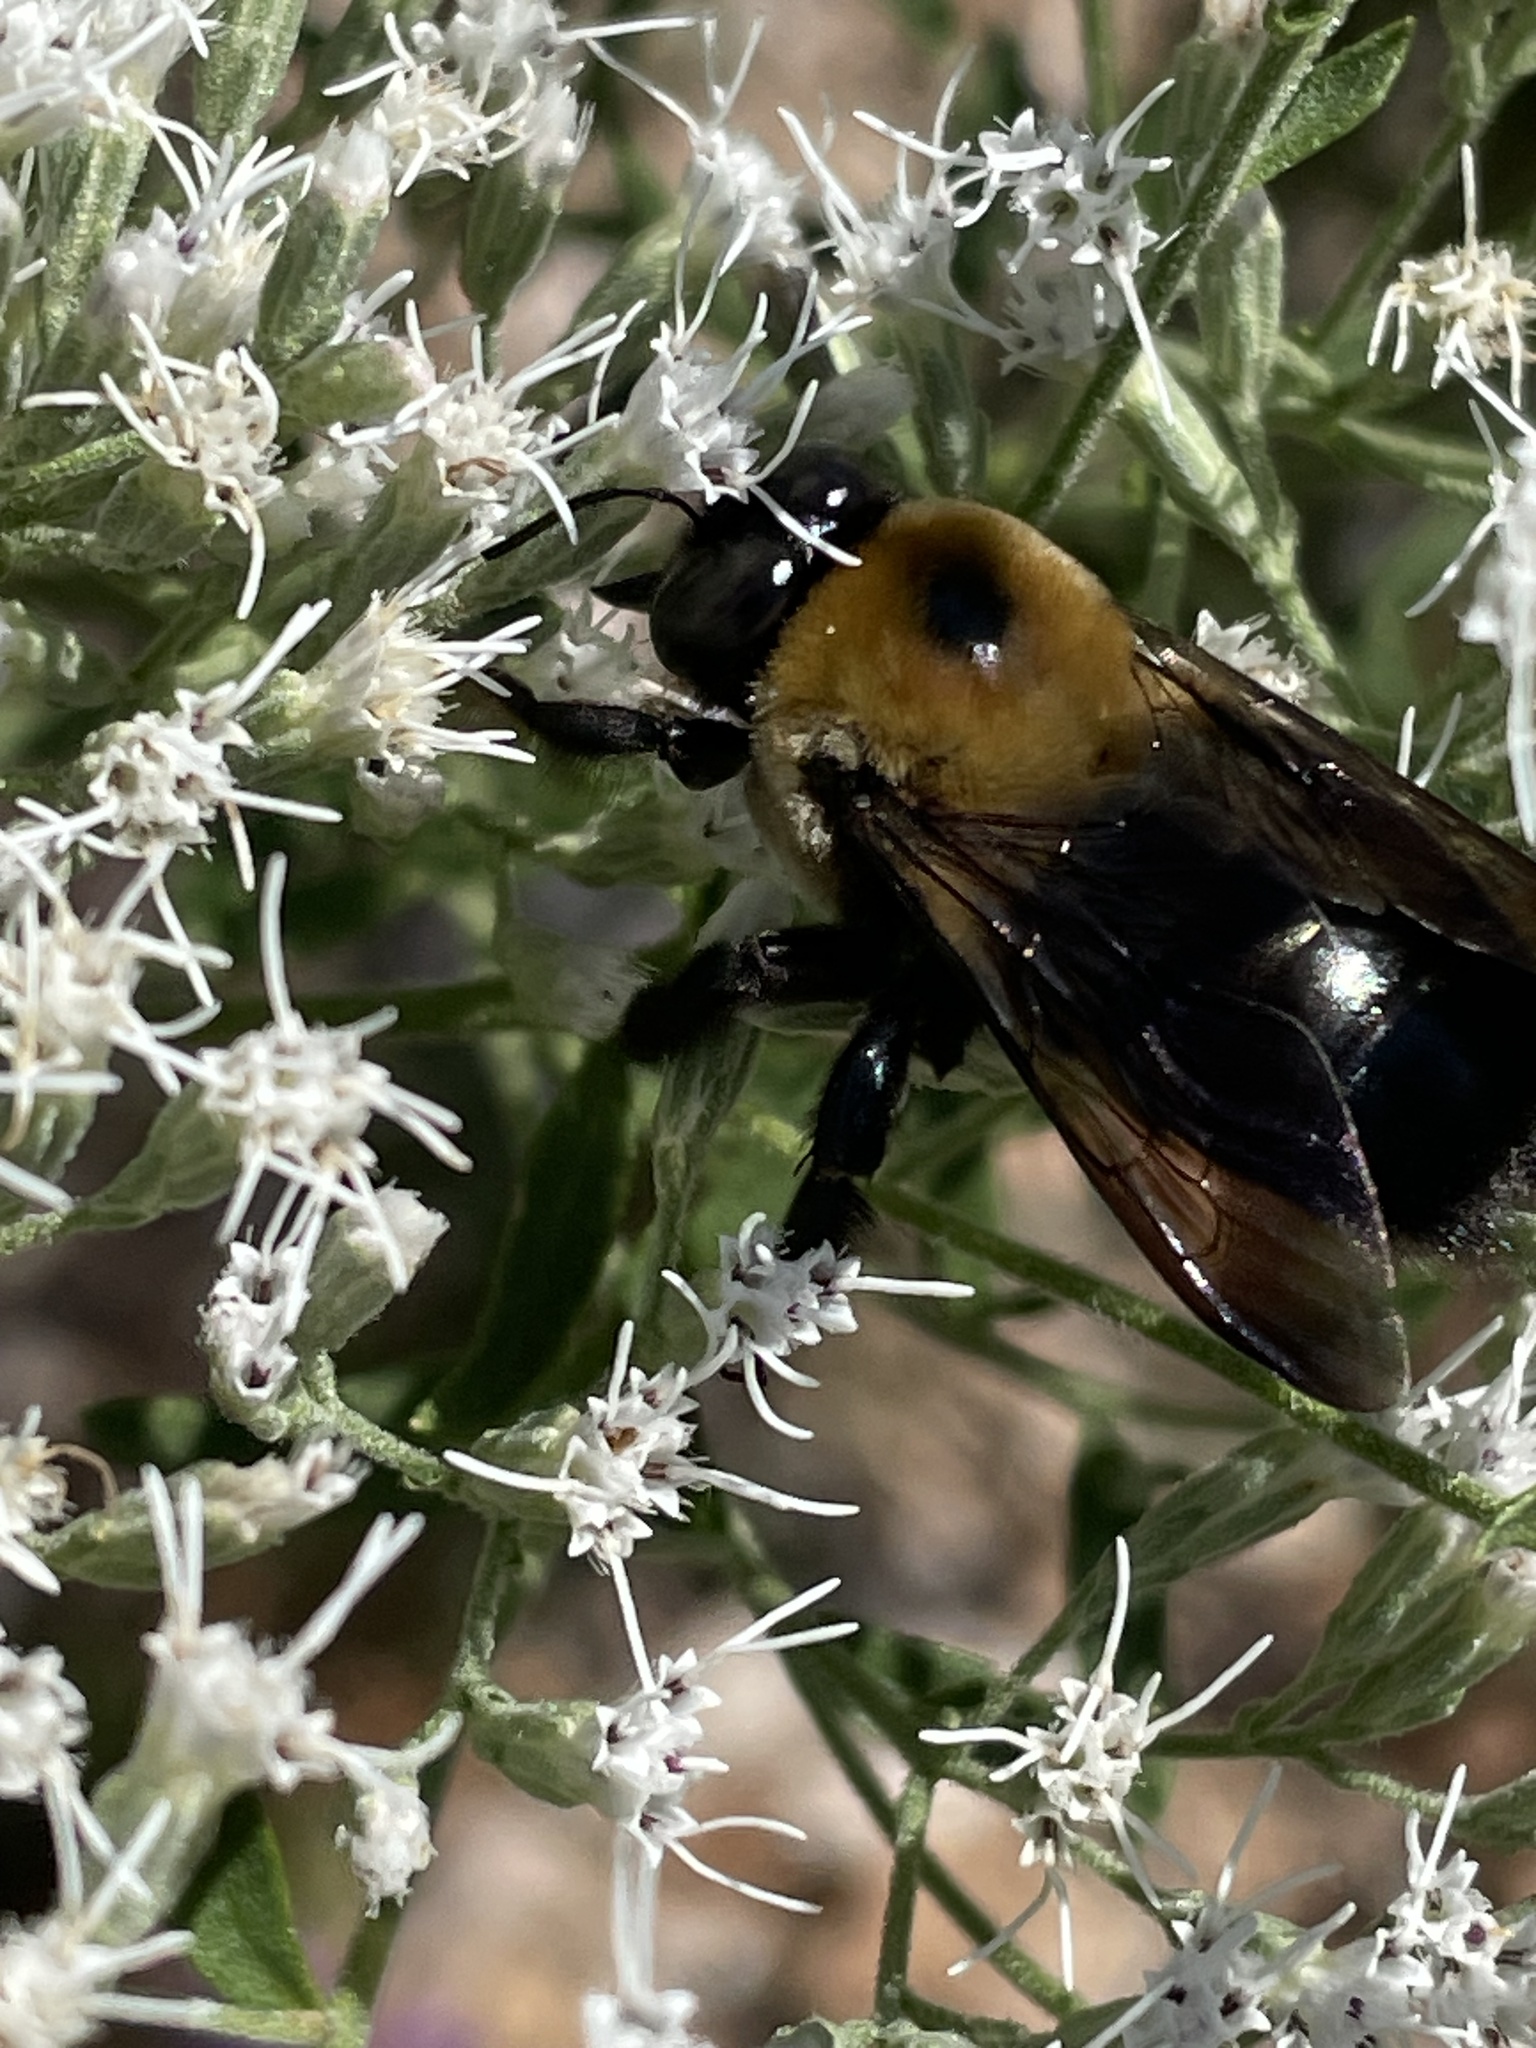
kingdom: Animalia
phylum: Arthropoda
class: Insecta
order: Hymenoptera
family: Apidae
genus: Xylocopa
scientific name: Xylocopa virginica
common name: Carpenter bee
